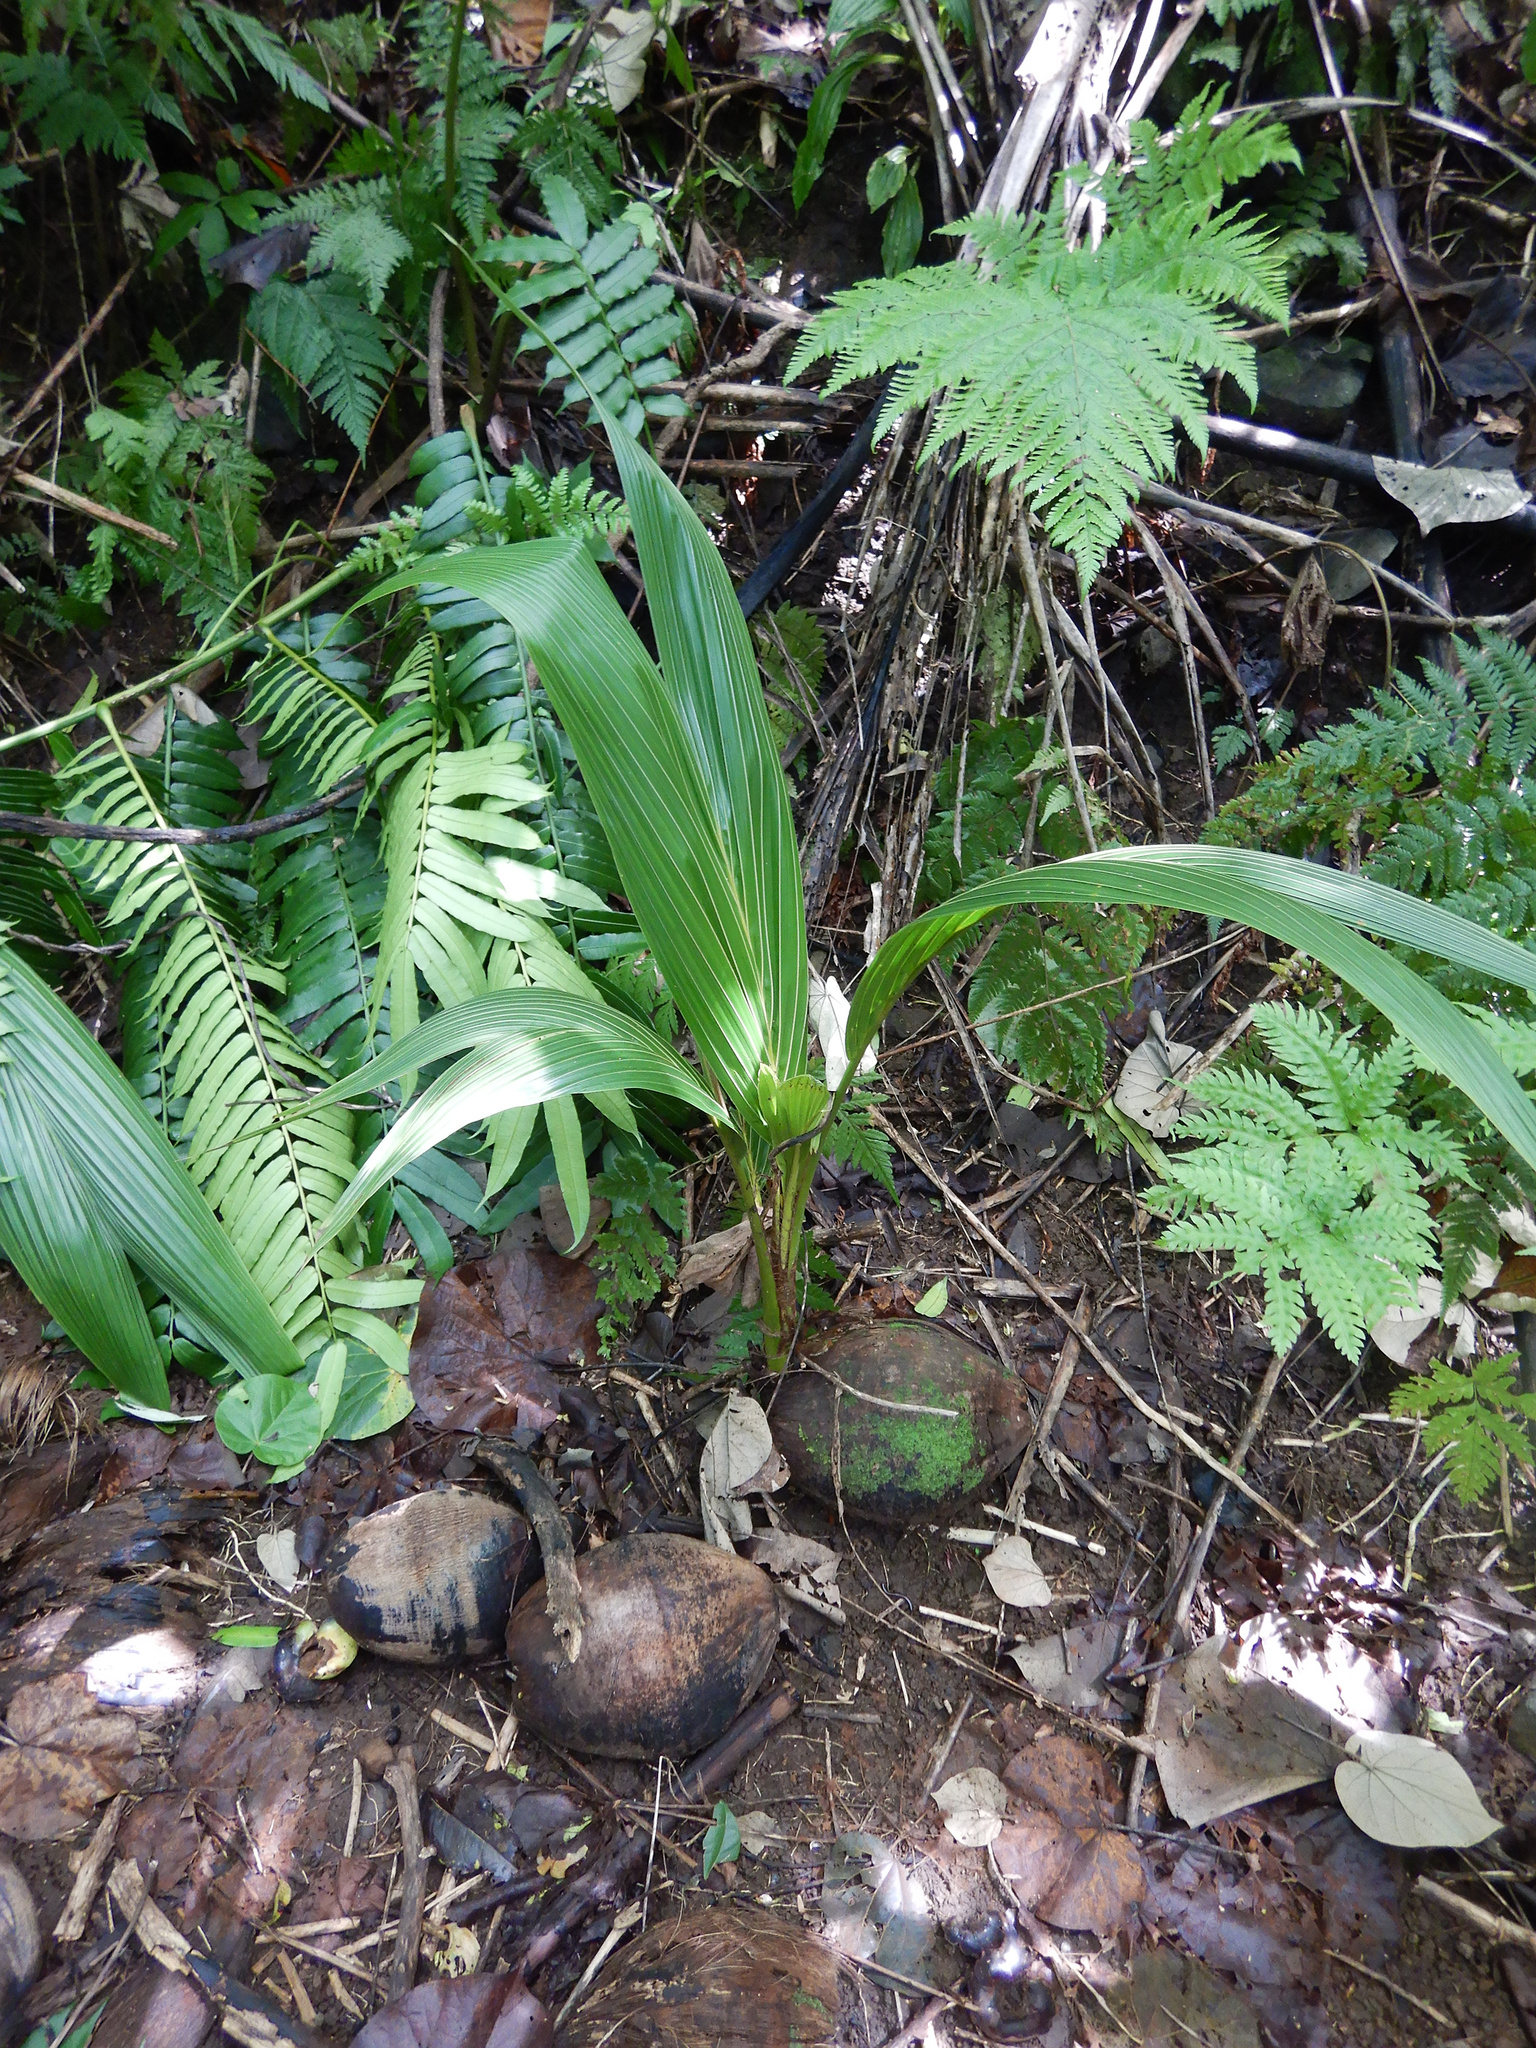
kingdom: Plantae
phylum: Tracheophyta
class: Liliopsida
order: Arecales
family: Arecaceae
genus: Cocos
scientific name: Cocos nucifera
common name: Coconut palm
